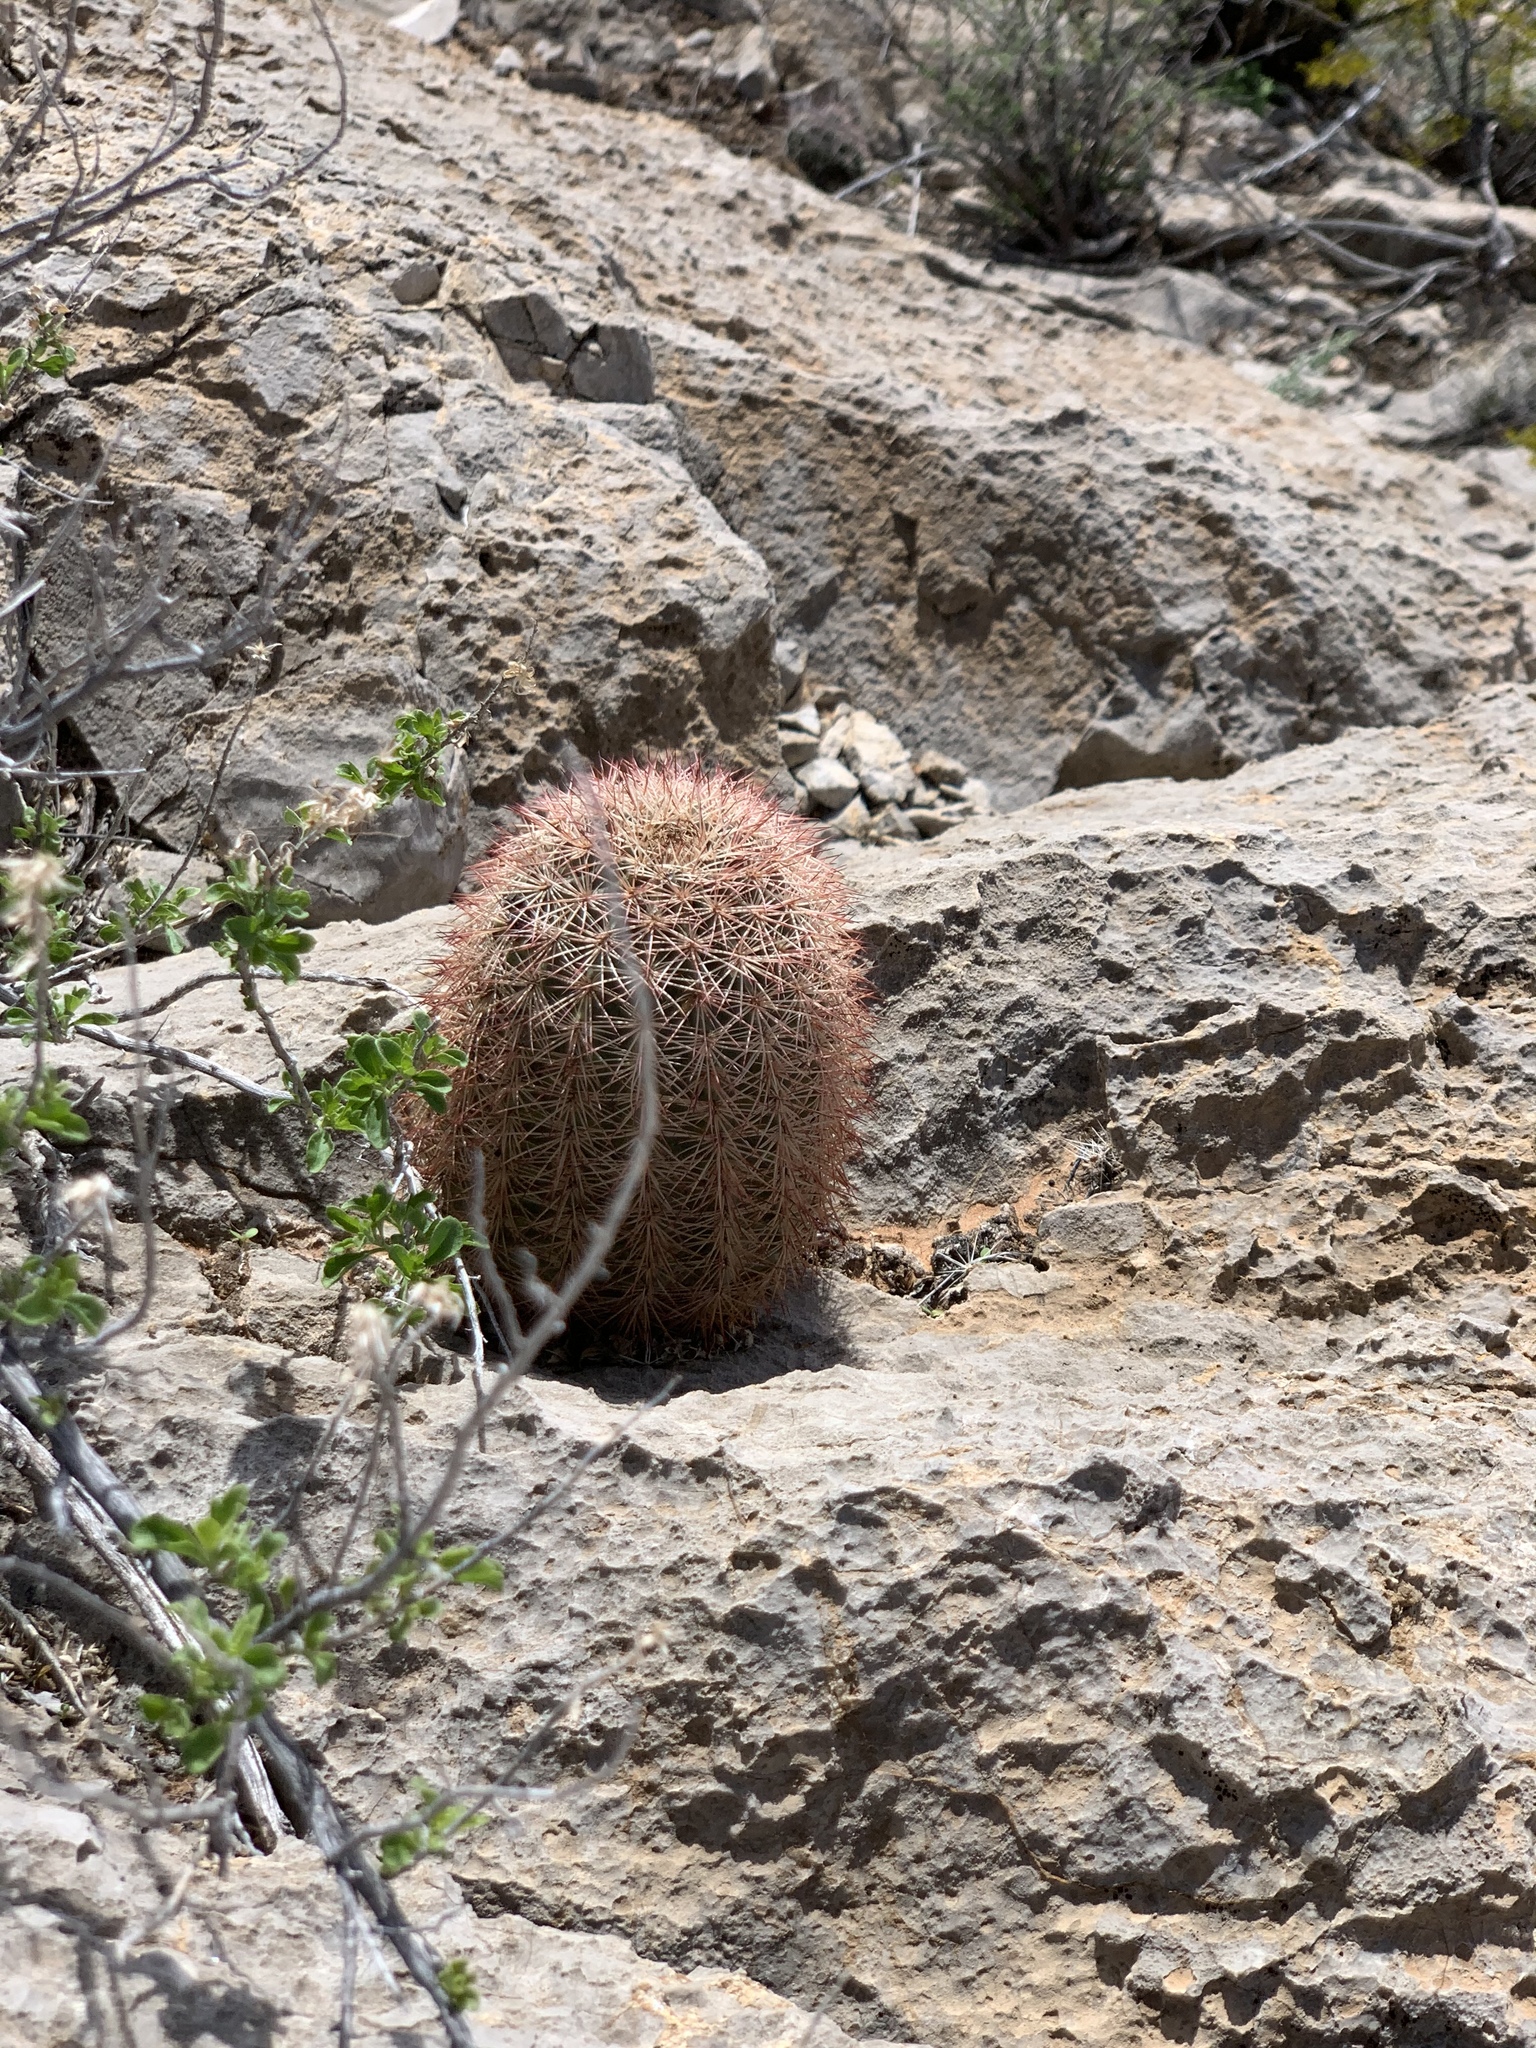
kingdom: Plantae
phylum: Tracheophyta
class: Magnoliopsida
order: Caryophyllales
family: Cactaceae
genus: Echinocereus
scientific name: Echinocereus dasyacanthus
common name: Spiny hedgehog cactus
